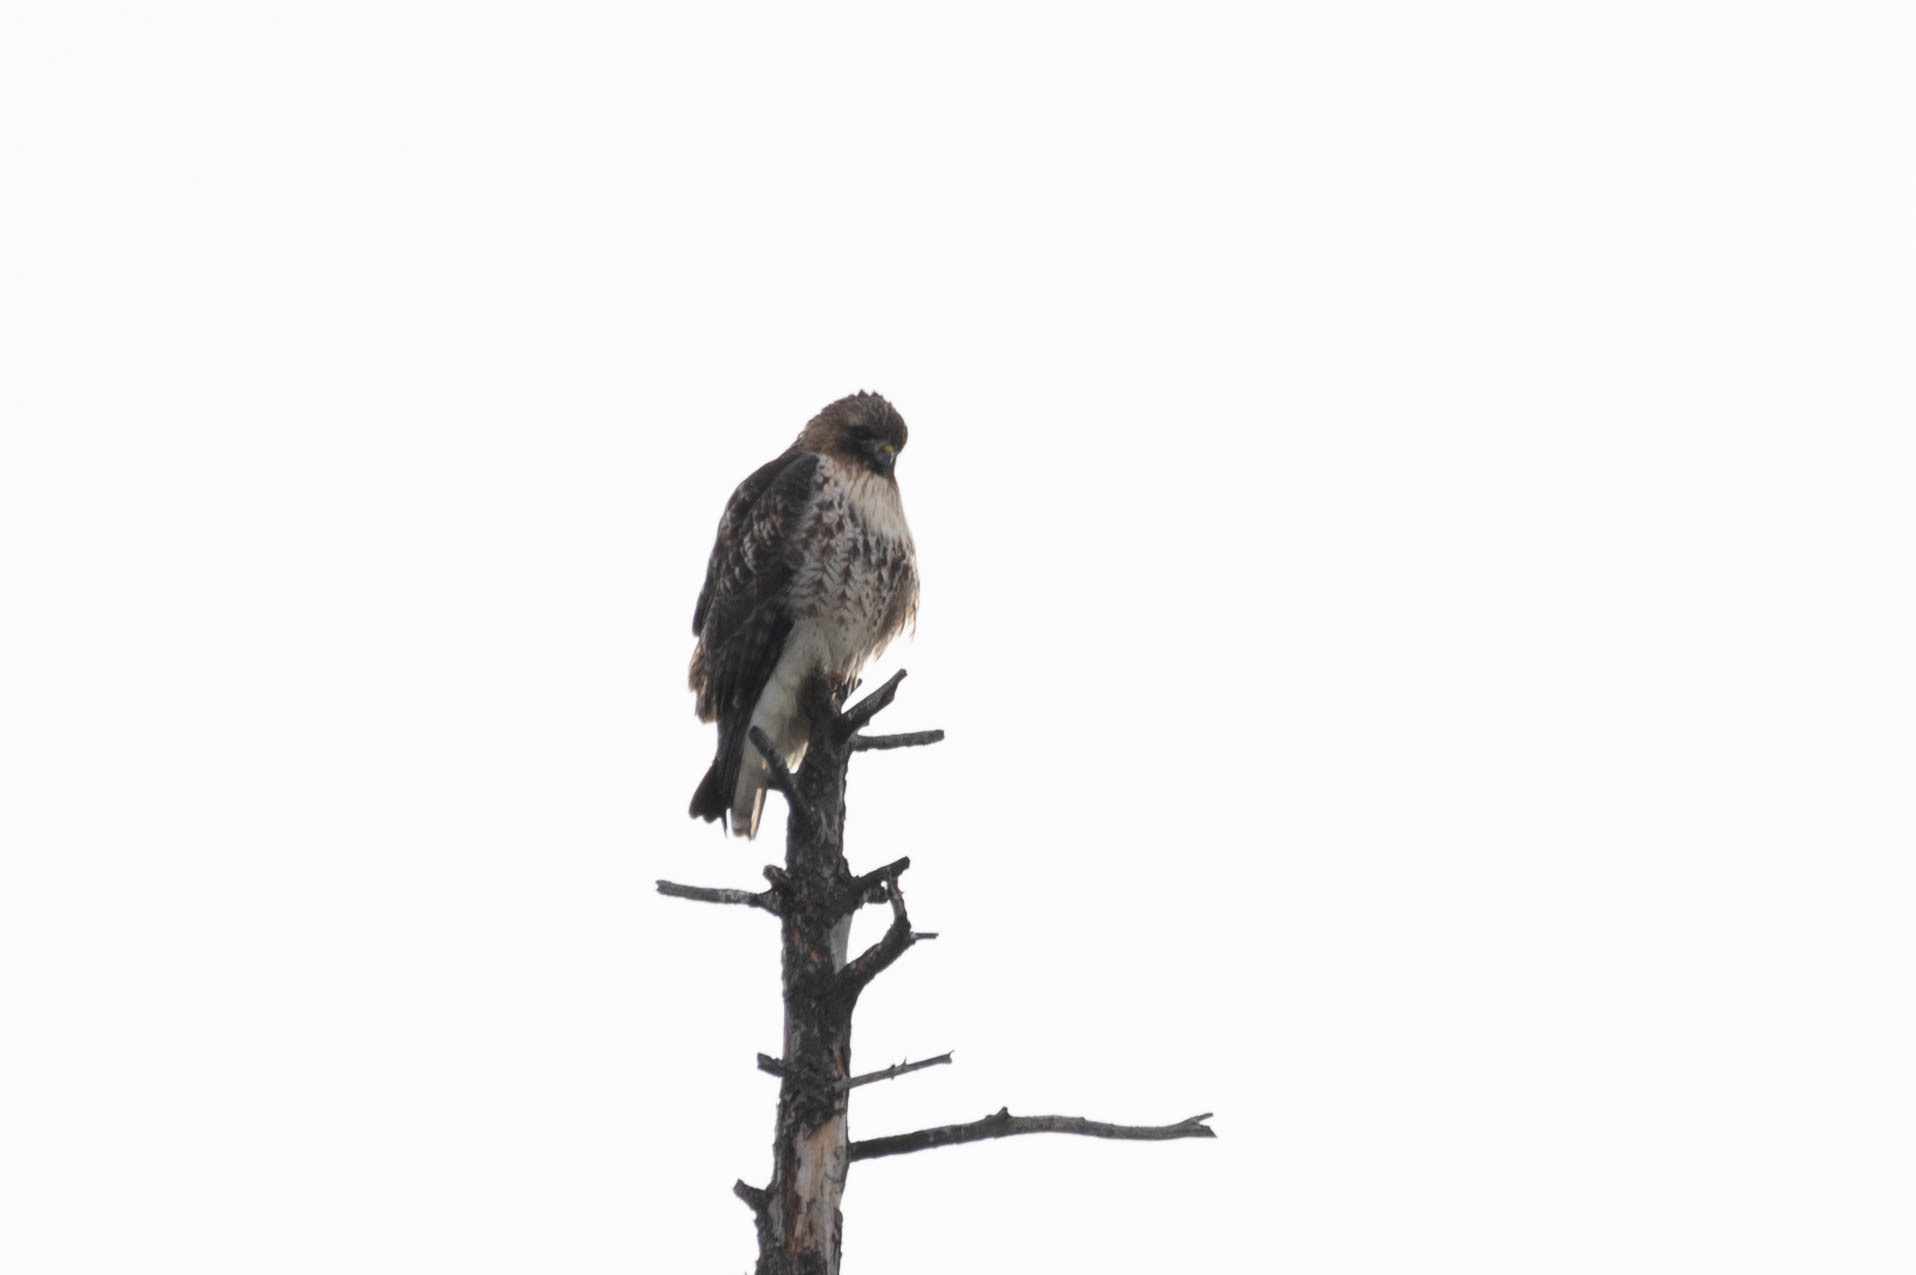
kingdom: Animalia
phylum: Chordata
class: Aves
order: Accipitriformes
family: Accipitridae
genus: Buteo
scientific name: Buteo jamaicensis
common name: Red-tailed hawk
